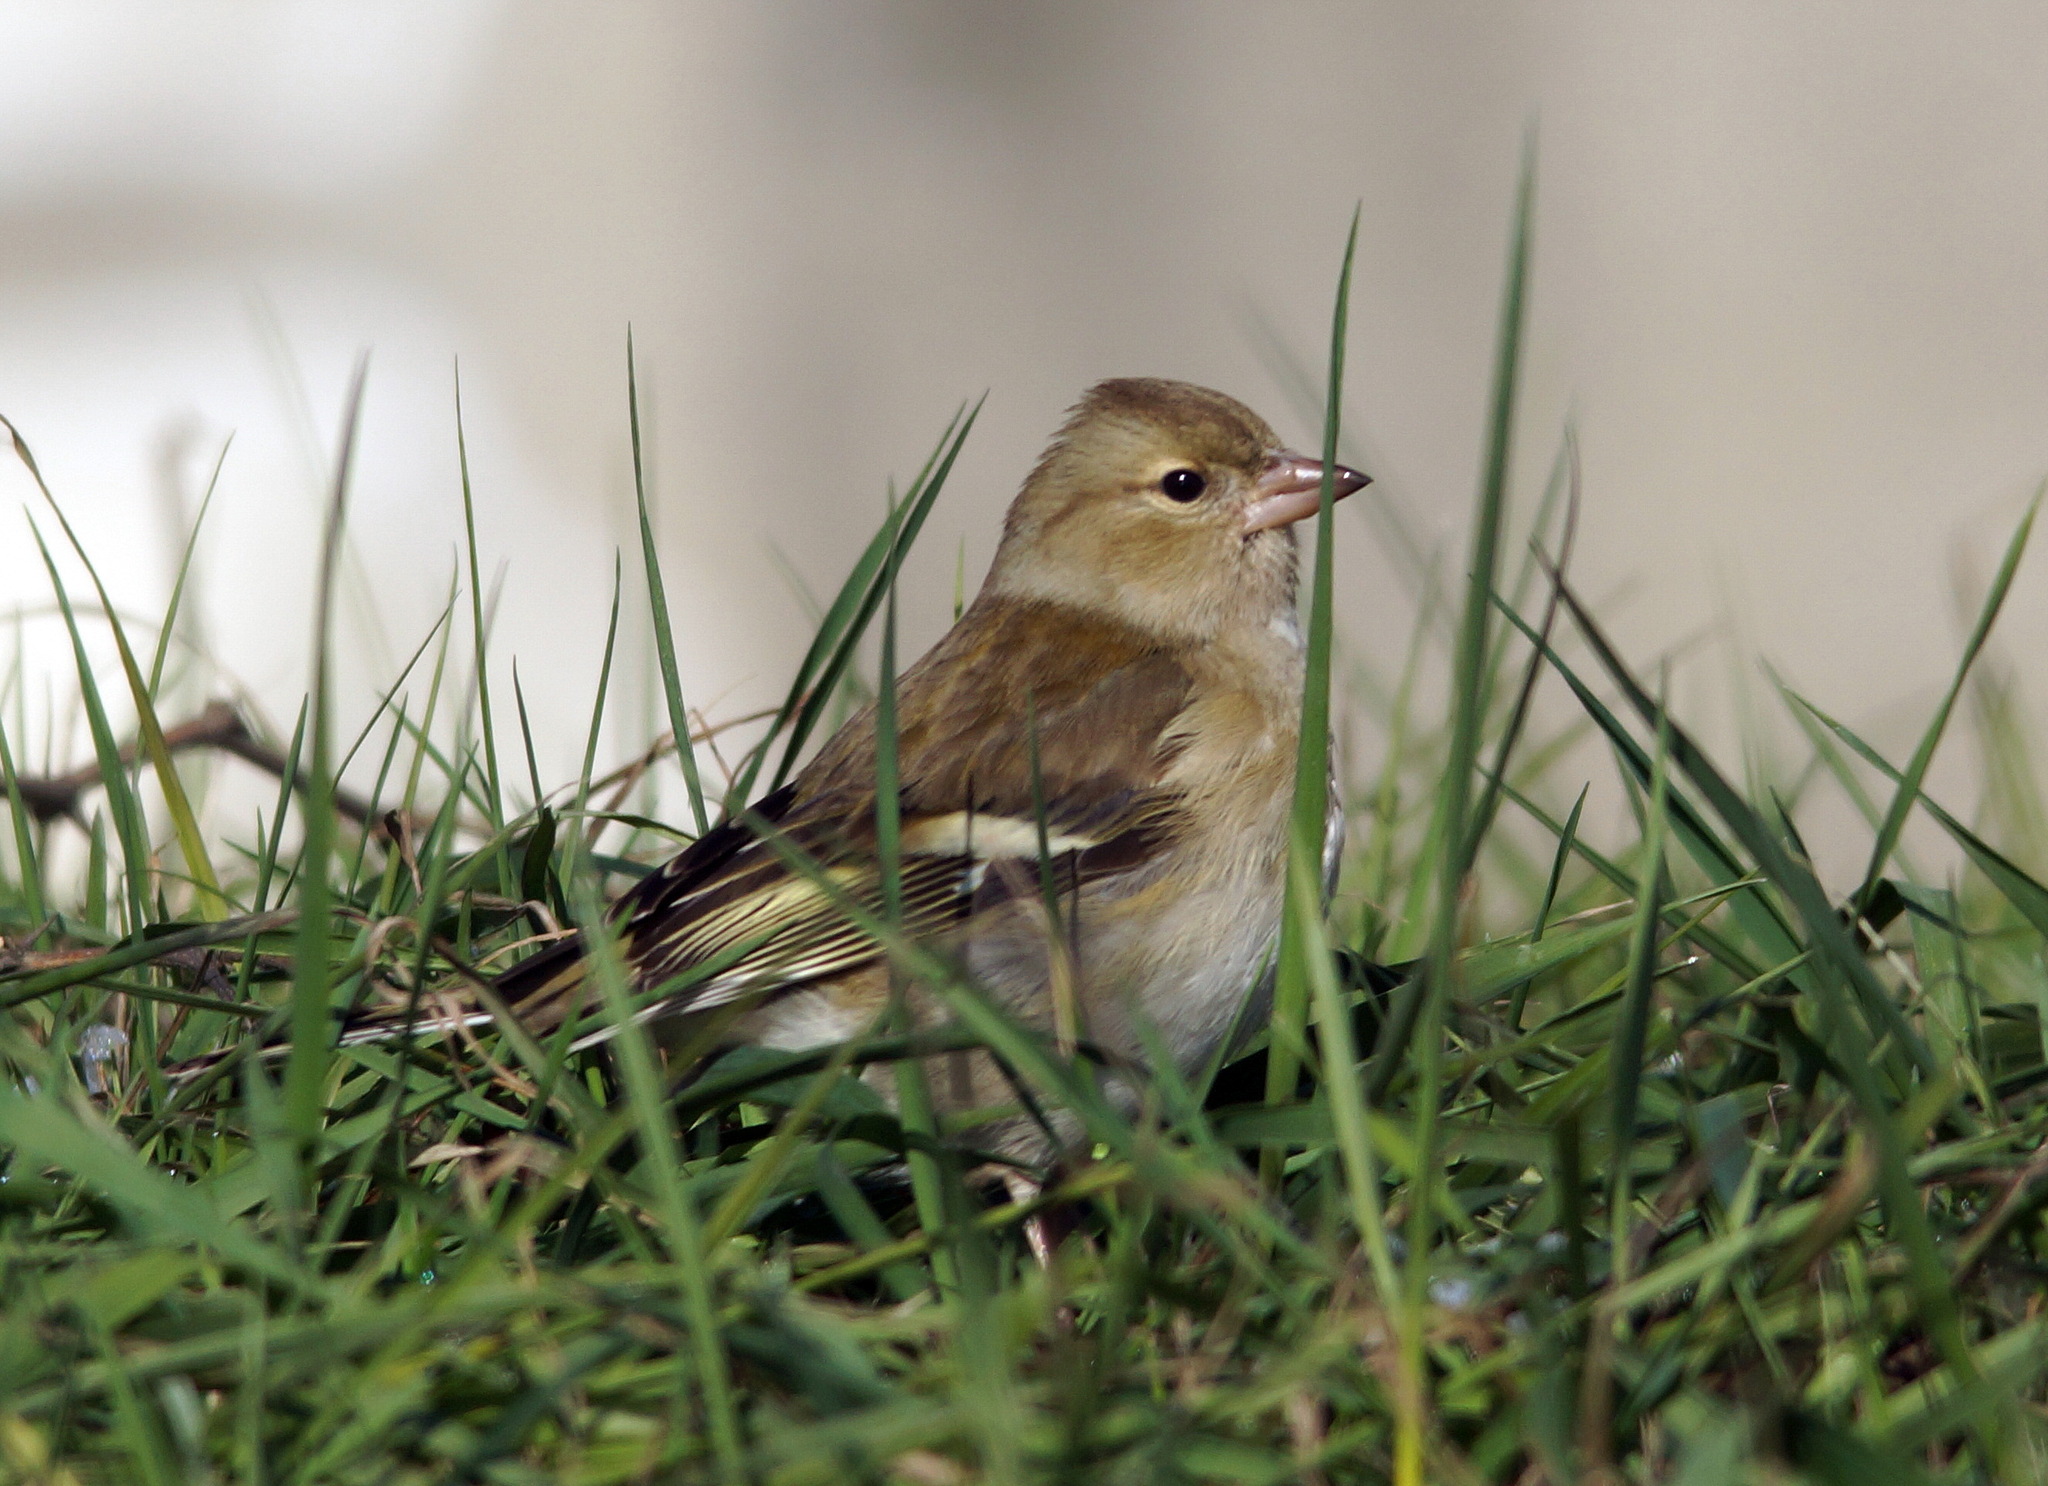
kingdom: Animalia
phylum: Chordata
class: Aves
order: Passeriformes
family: Fringillidae
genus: Fringilla
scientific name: Fringilla coelebs
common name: Common chaffinch
